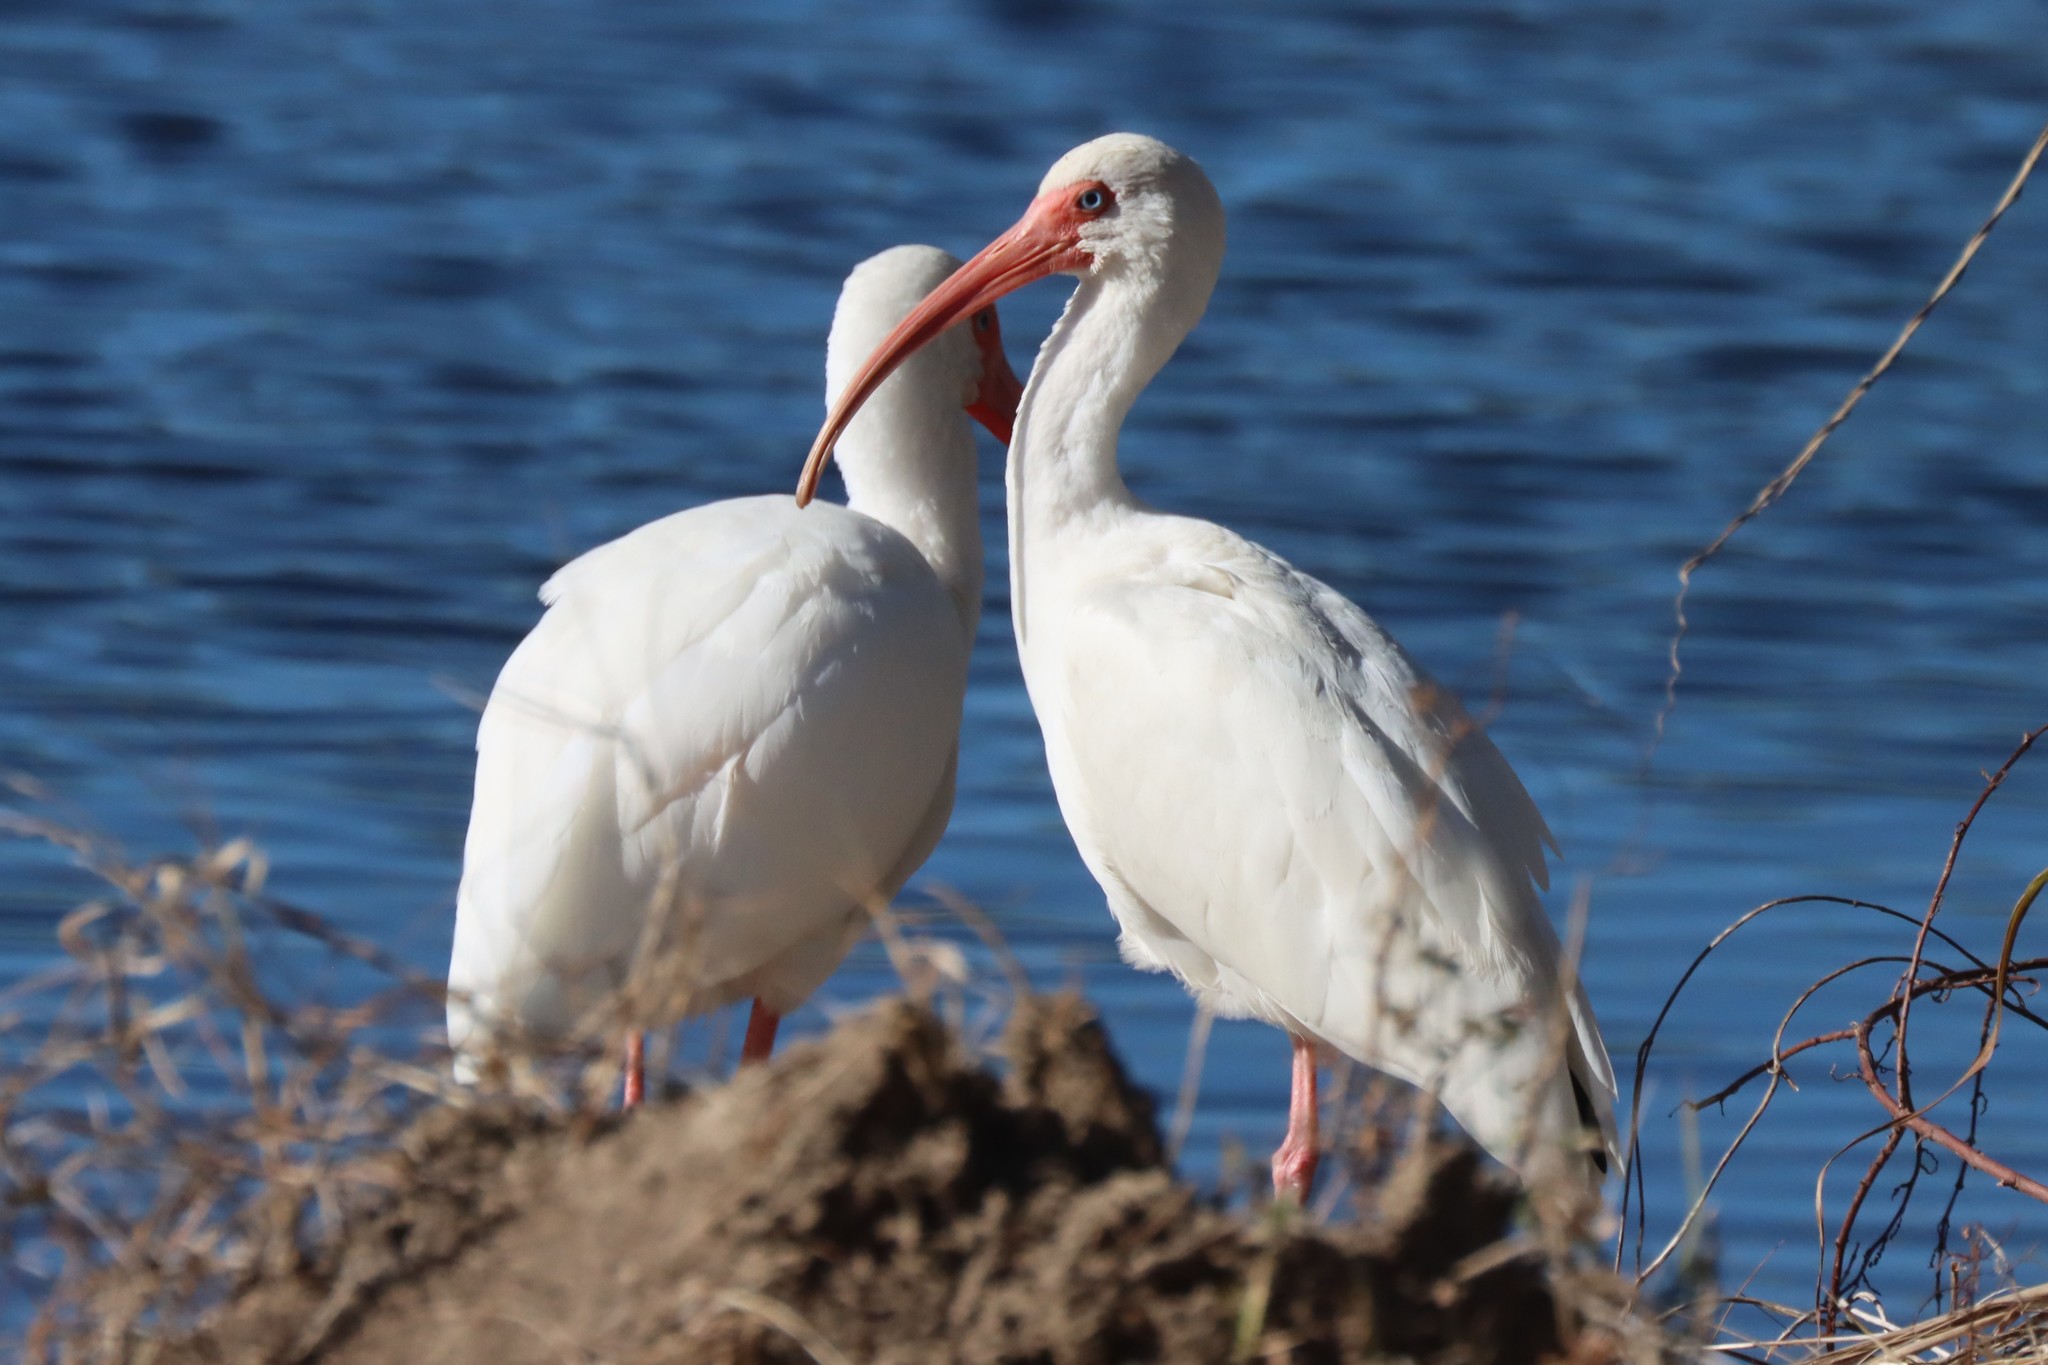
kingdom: Animalia
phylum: Chordata
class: Aves
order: Pelecaniformes
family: Threskiornithidae
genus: Eudocimus
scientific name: Eudocimus albus
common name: White ibis
